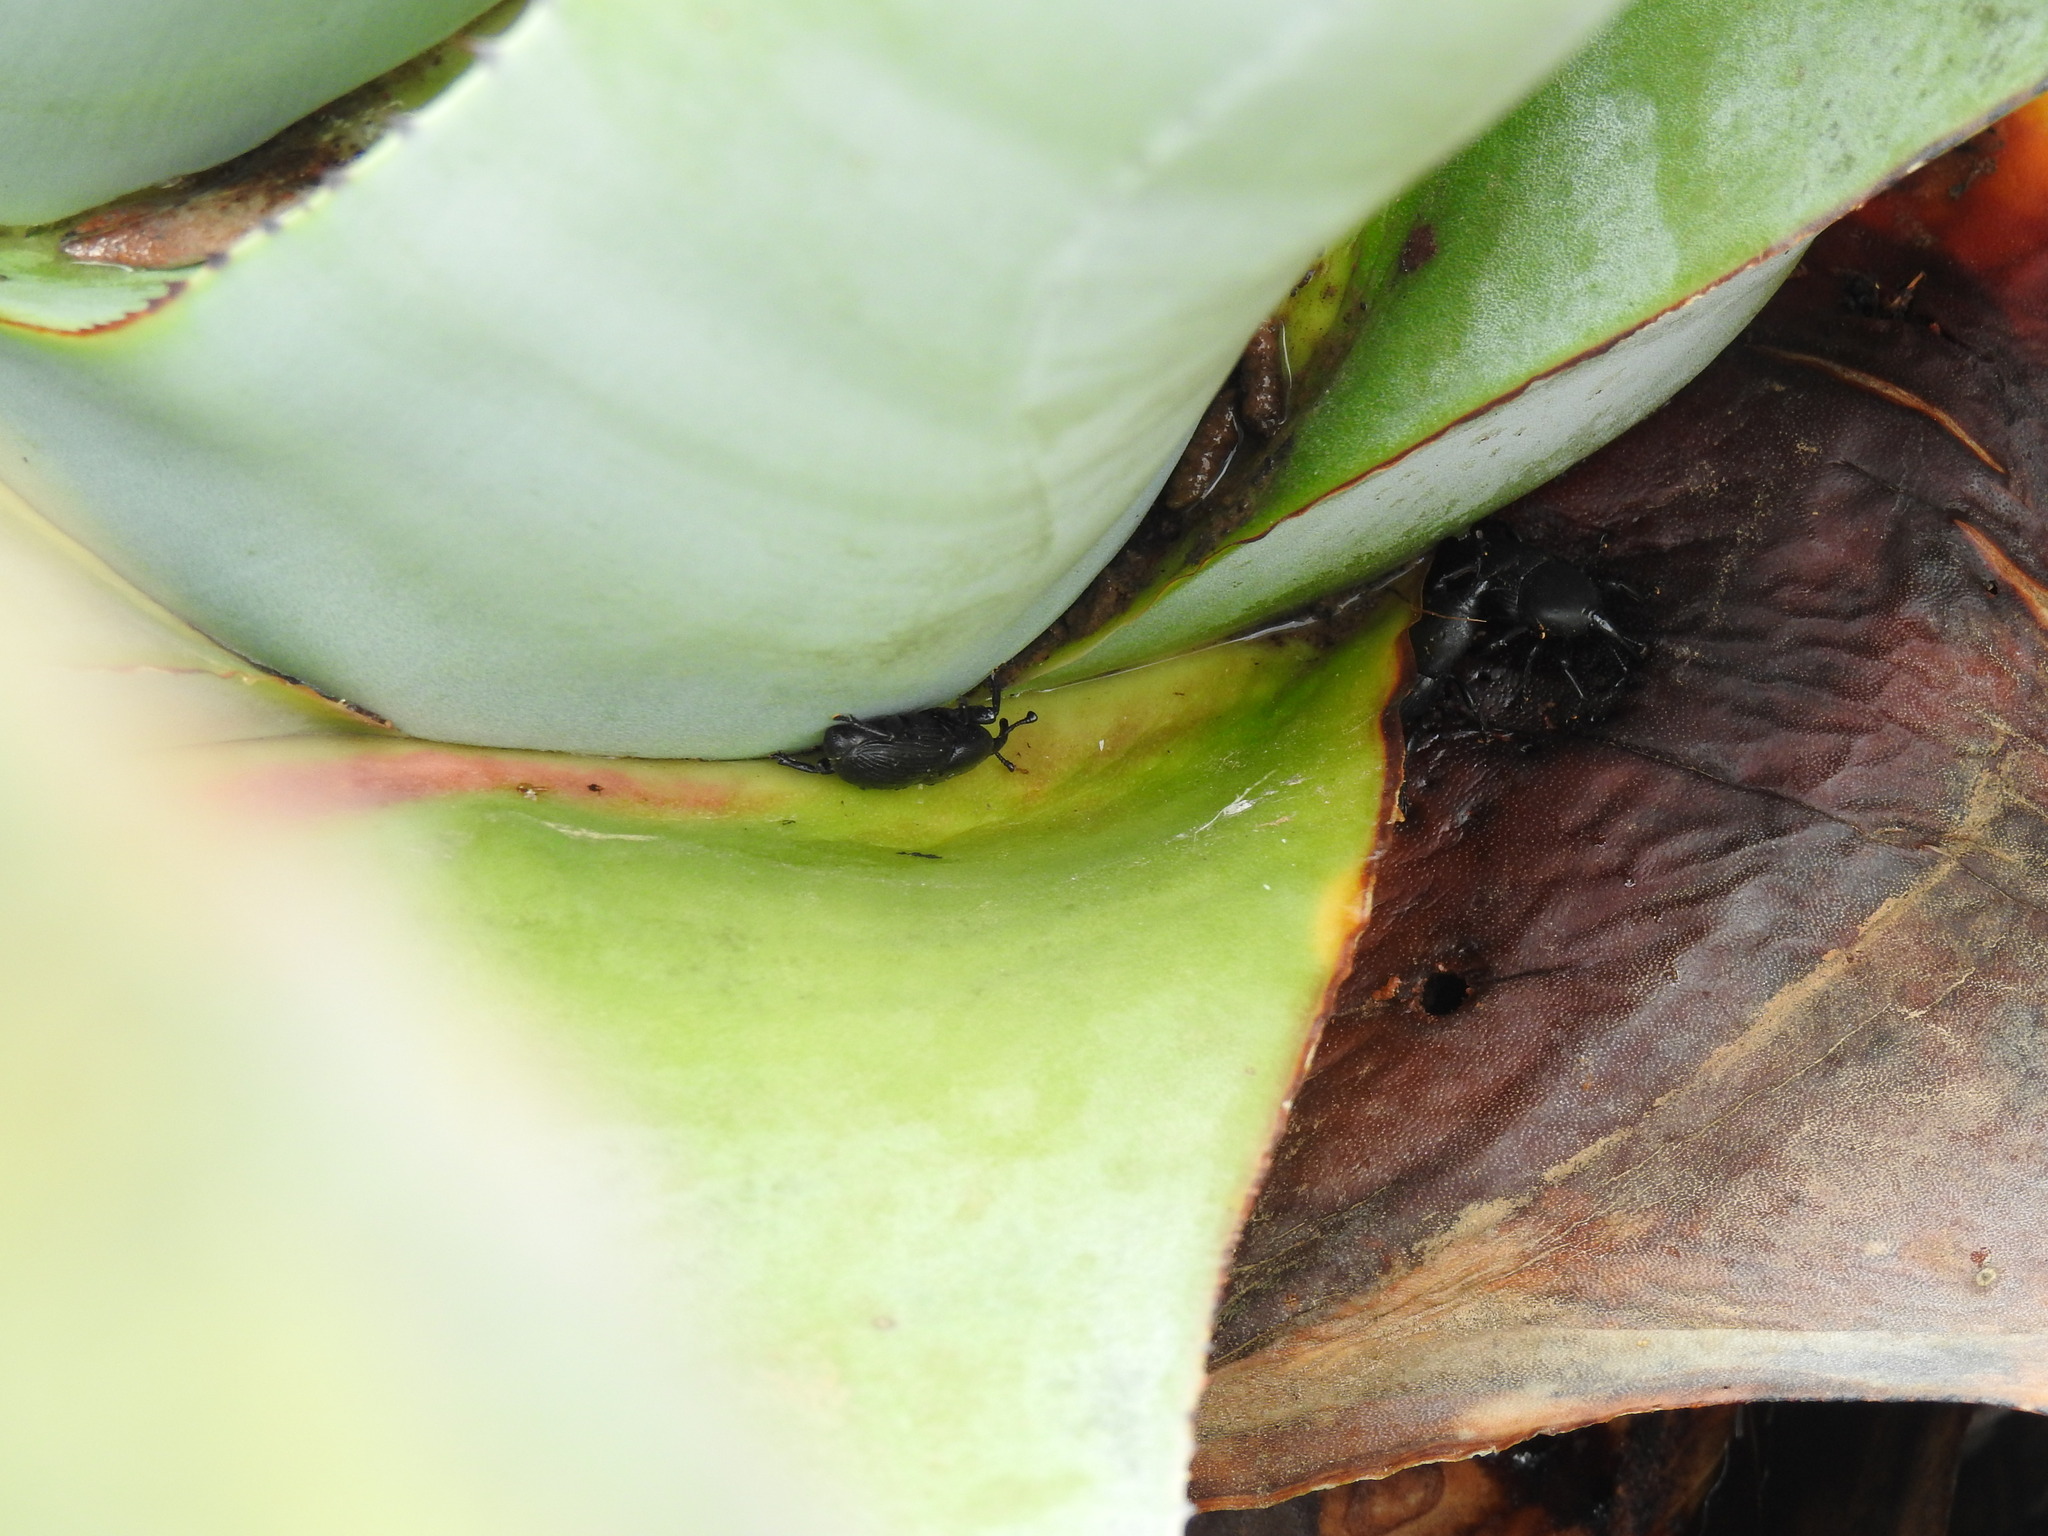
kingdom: Animalia
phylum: Arthropoda
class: Insecta
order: Coleoptera
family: Dryophthoridae
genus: Scyphophorus
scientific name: Scyphophorus acupunctatus
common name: Weevil
